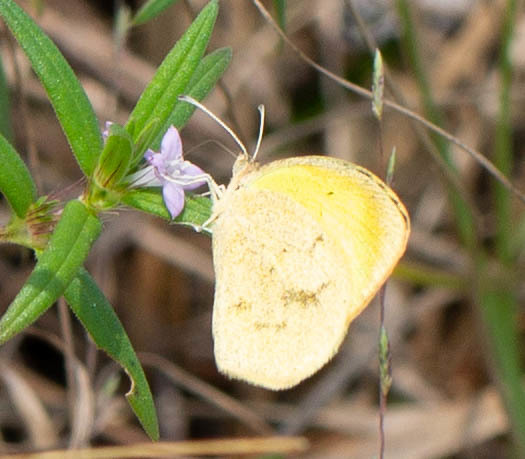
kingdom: Animalia
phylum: Arthropoda
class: Insecta
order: Lepidoptera
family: Pieridae
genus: Abaeis
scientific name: Abaeis nicippe
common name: Sleepy orange
